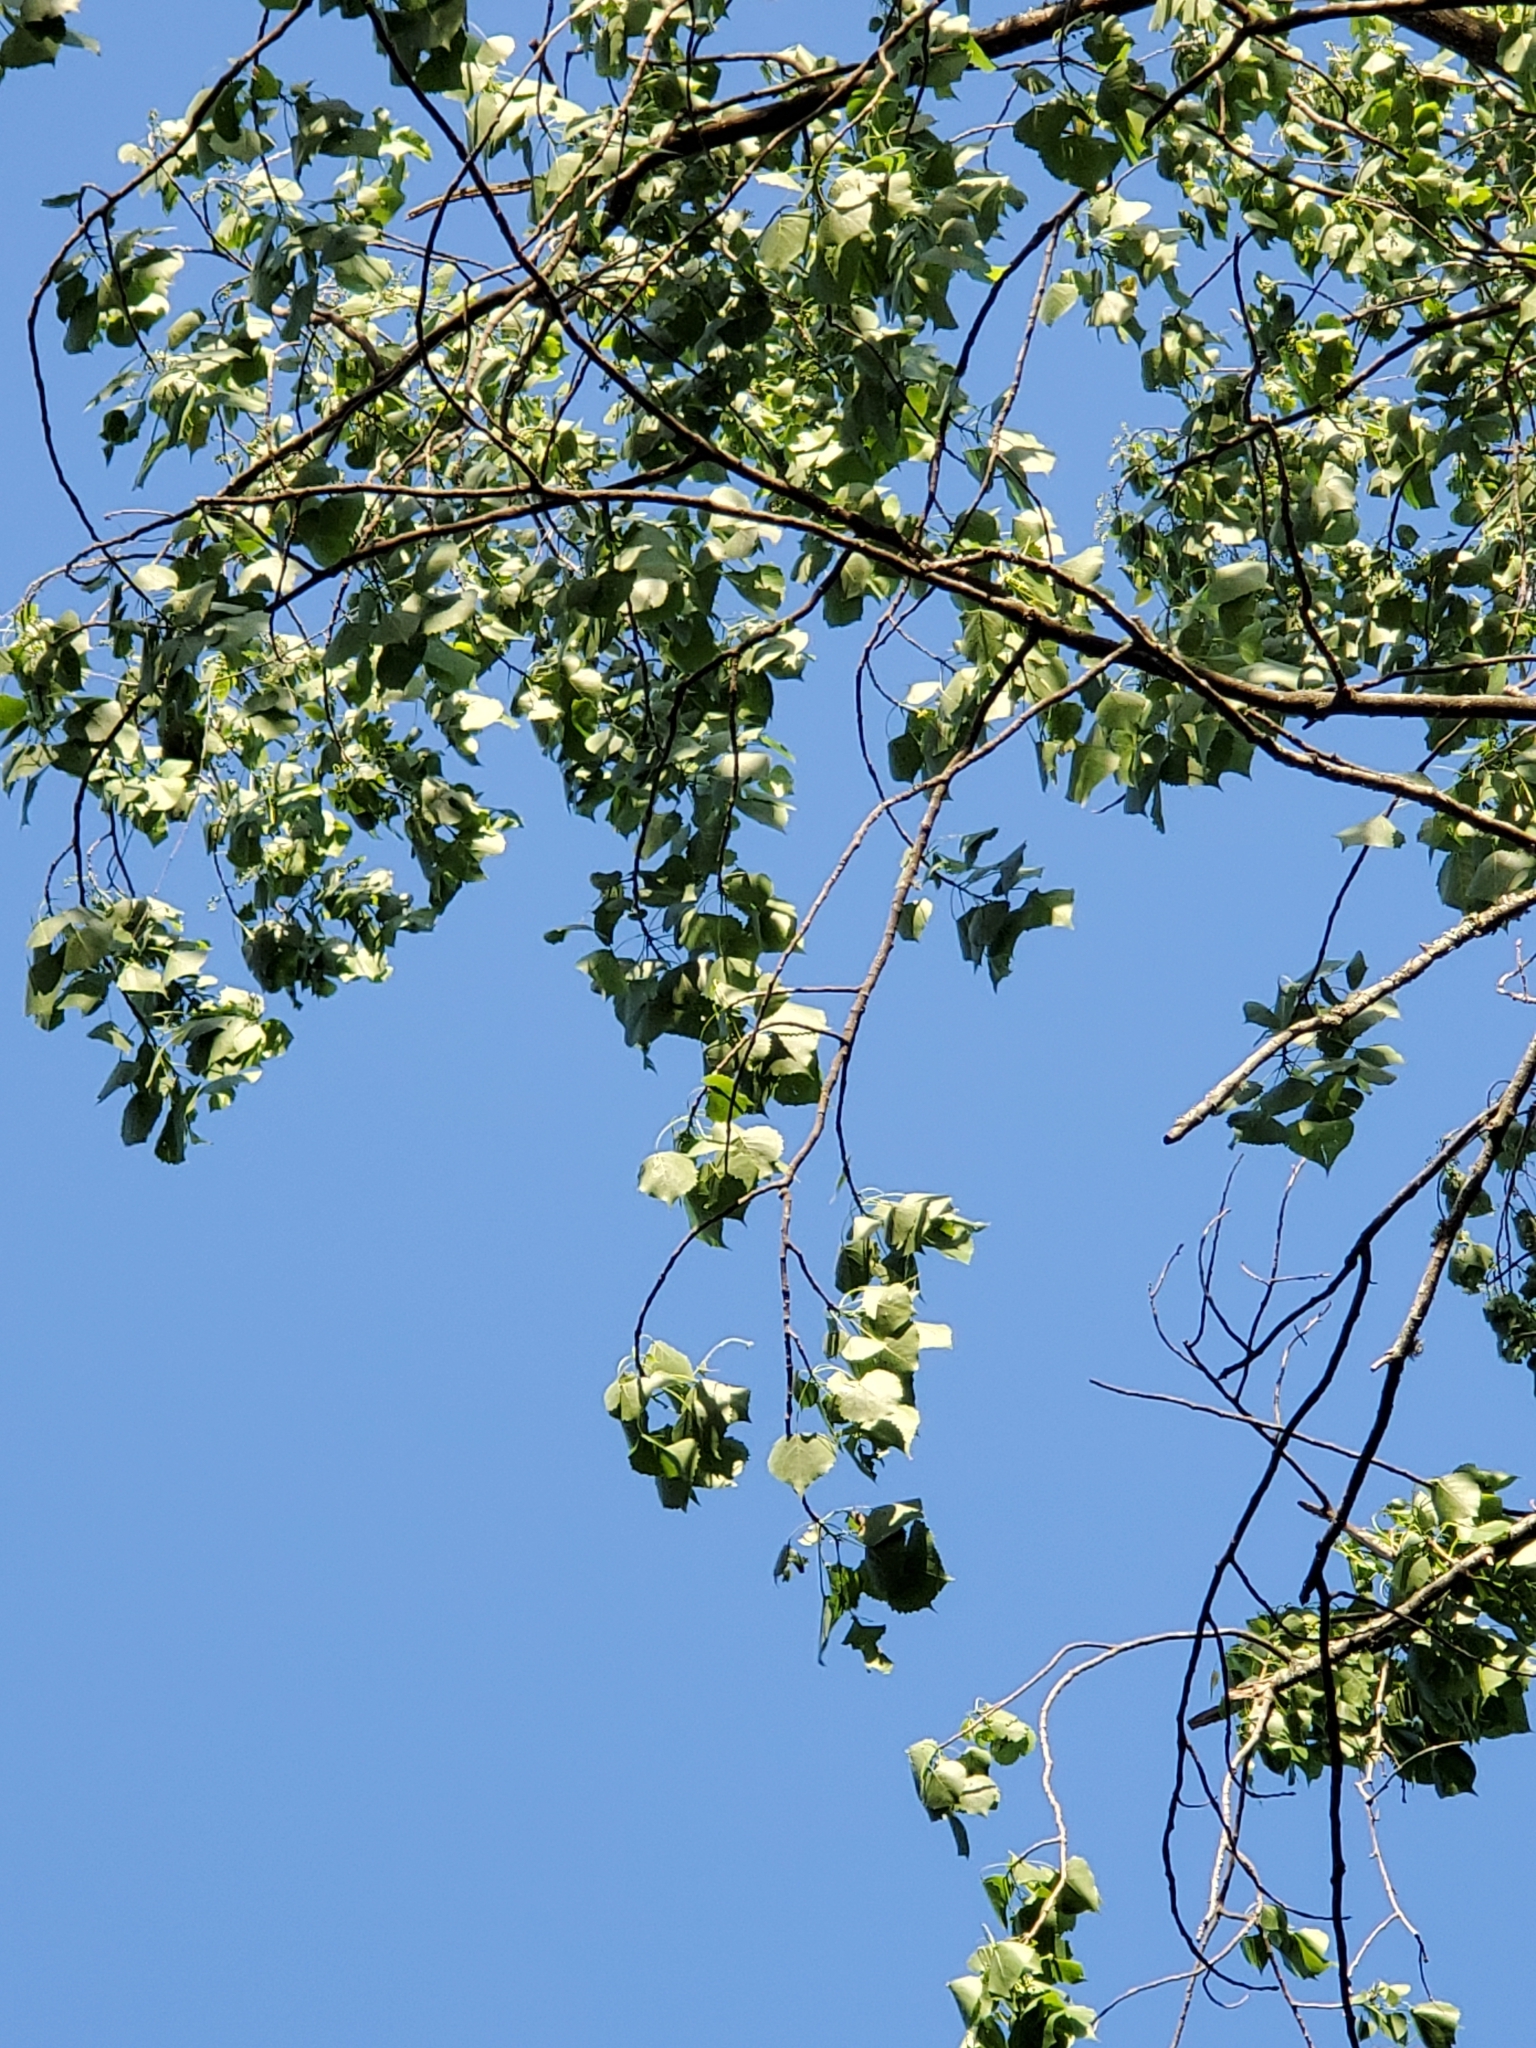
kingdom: Plantae
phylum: Tracheophyta
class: Magnoliopsida
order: Malpighiales
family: Salicaceae
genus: Populus
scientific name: Populus deltoides
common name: Eastern cottonwood
